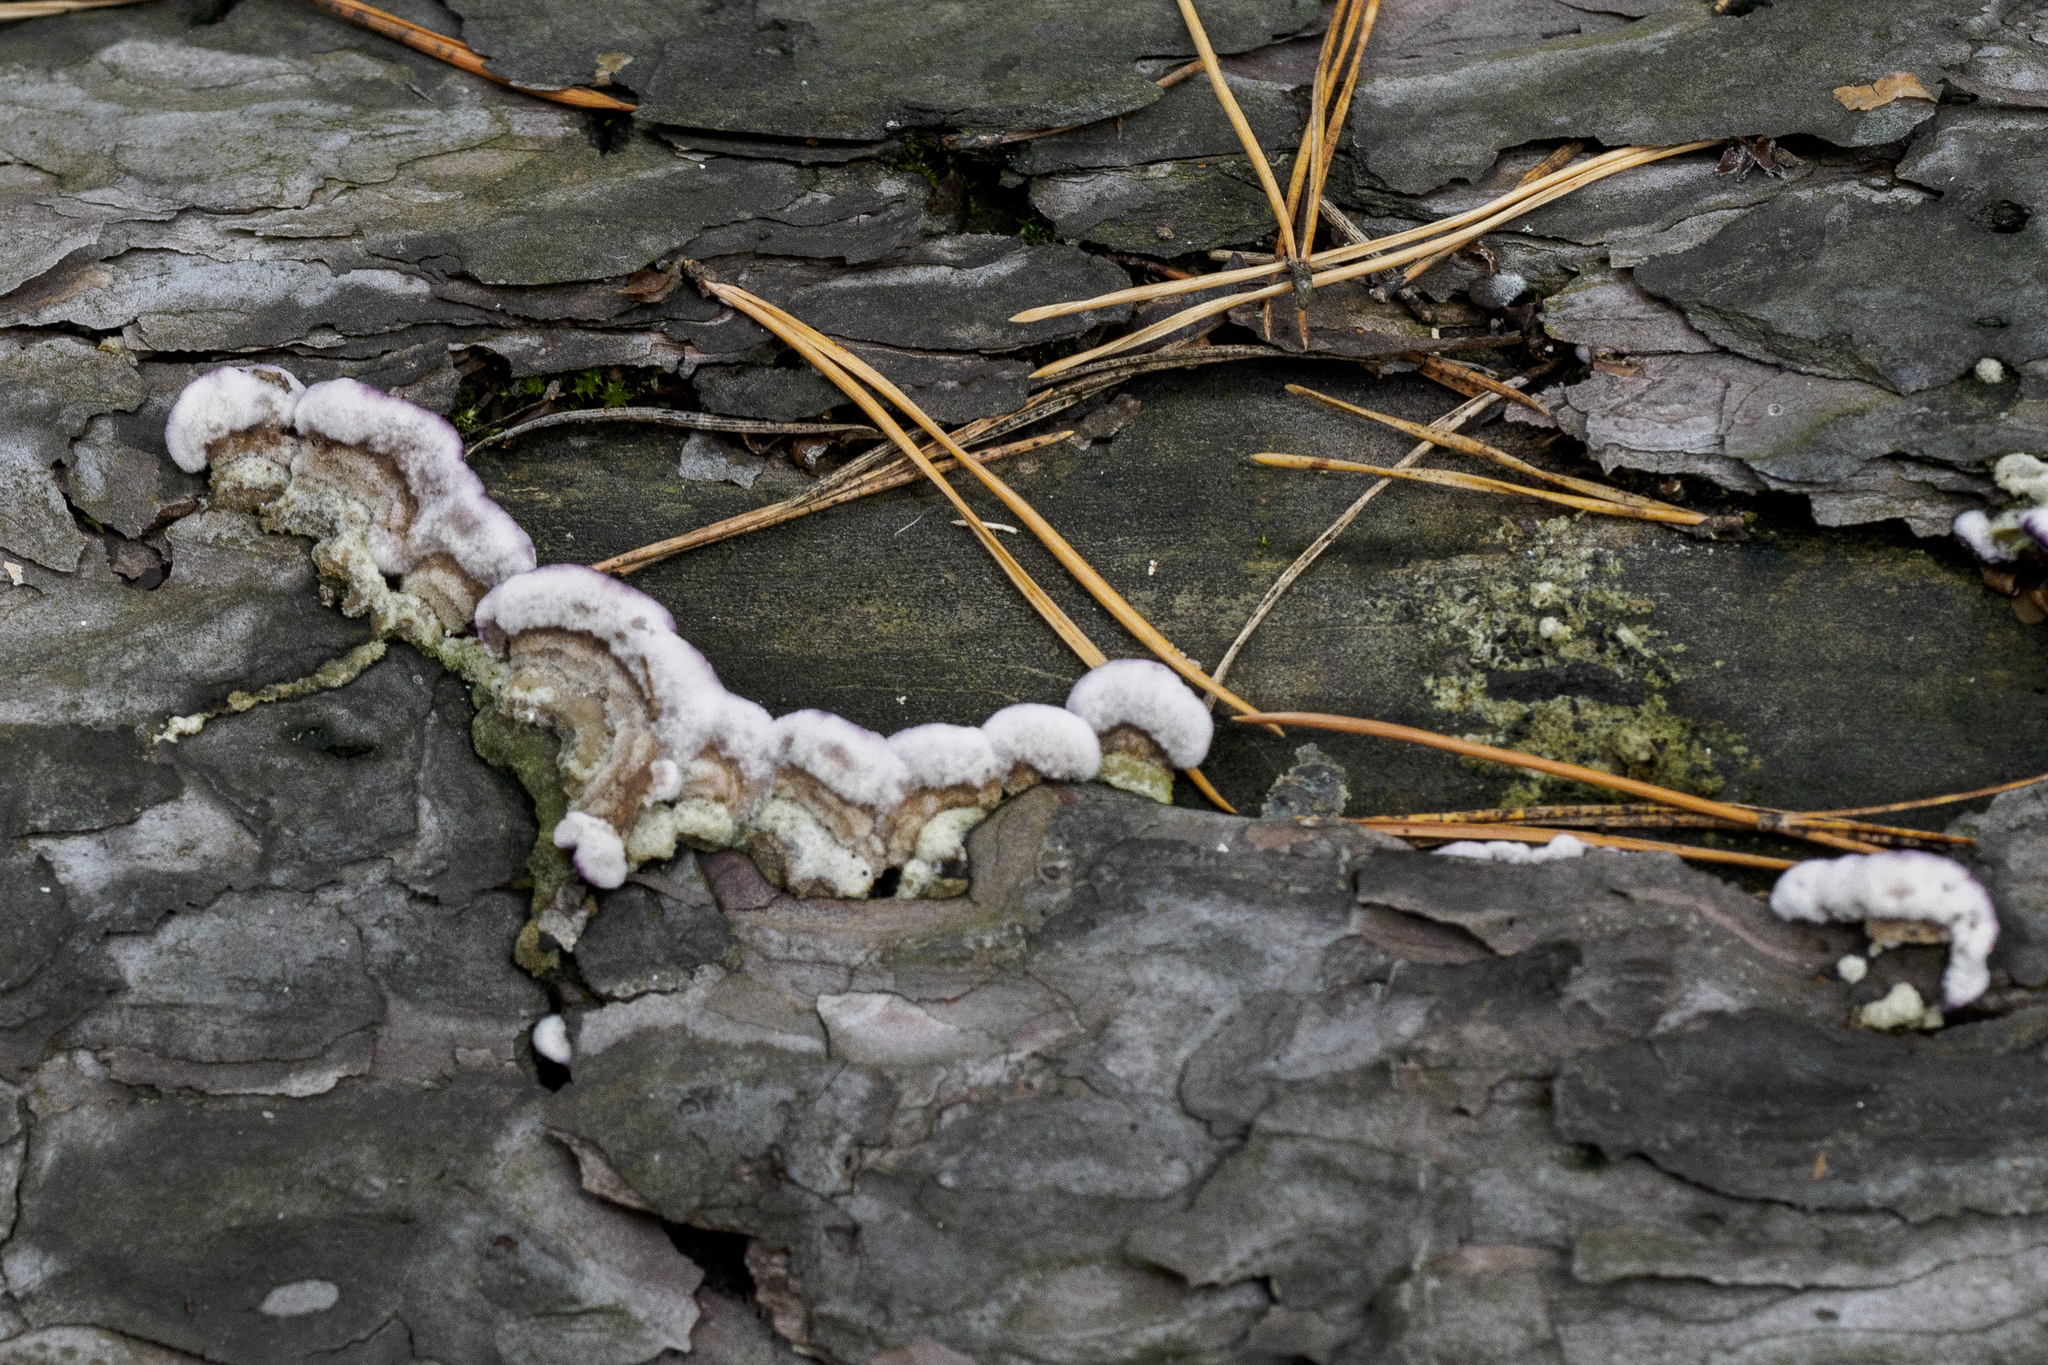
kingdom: Fungi
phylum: Basidiomycota
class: Agaricomycetes
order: Hymenochaetales
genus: Trichaptum
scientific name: Trichaptum abietinum
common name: Purplepore bracket
